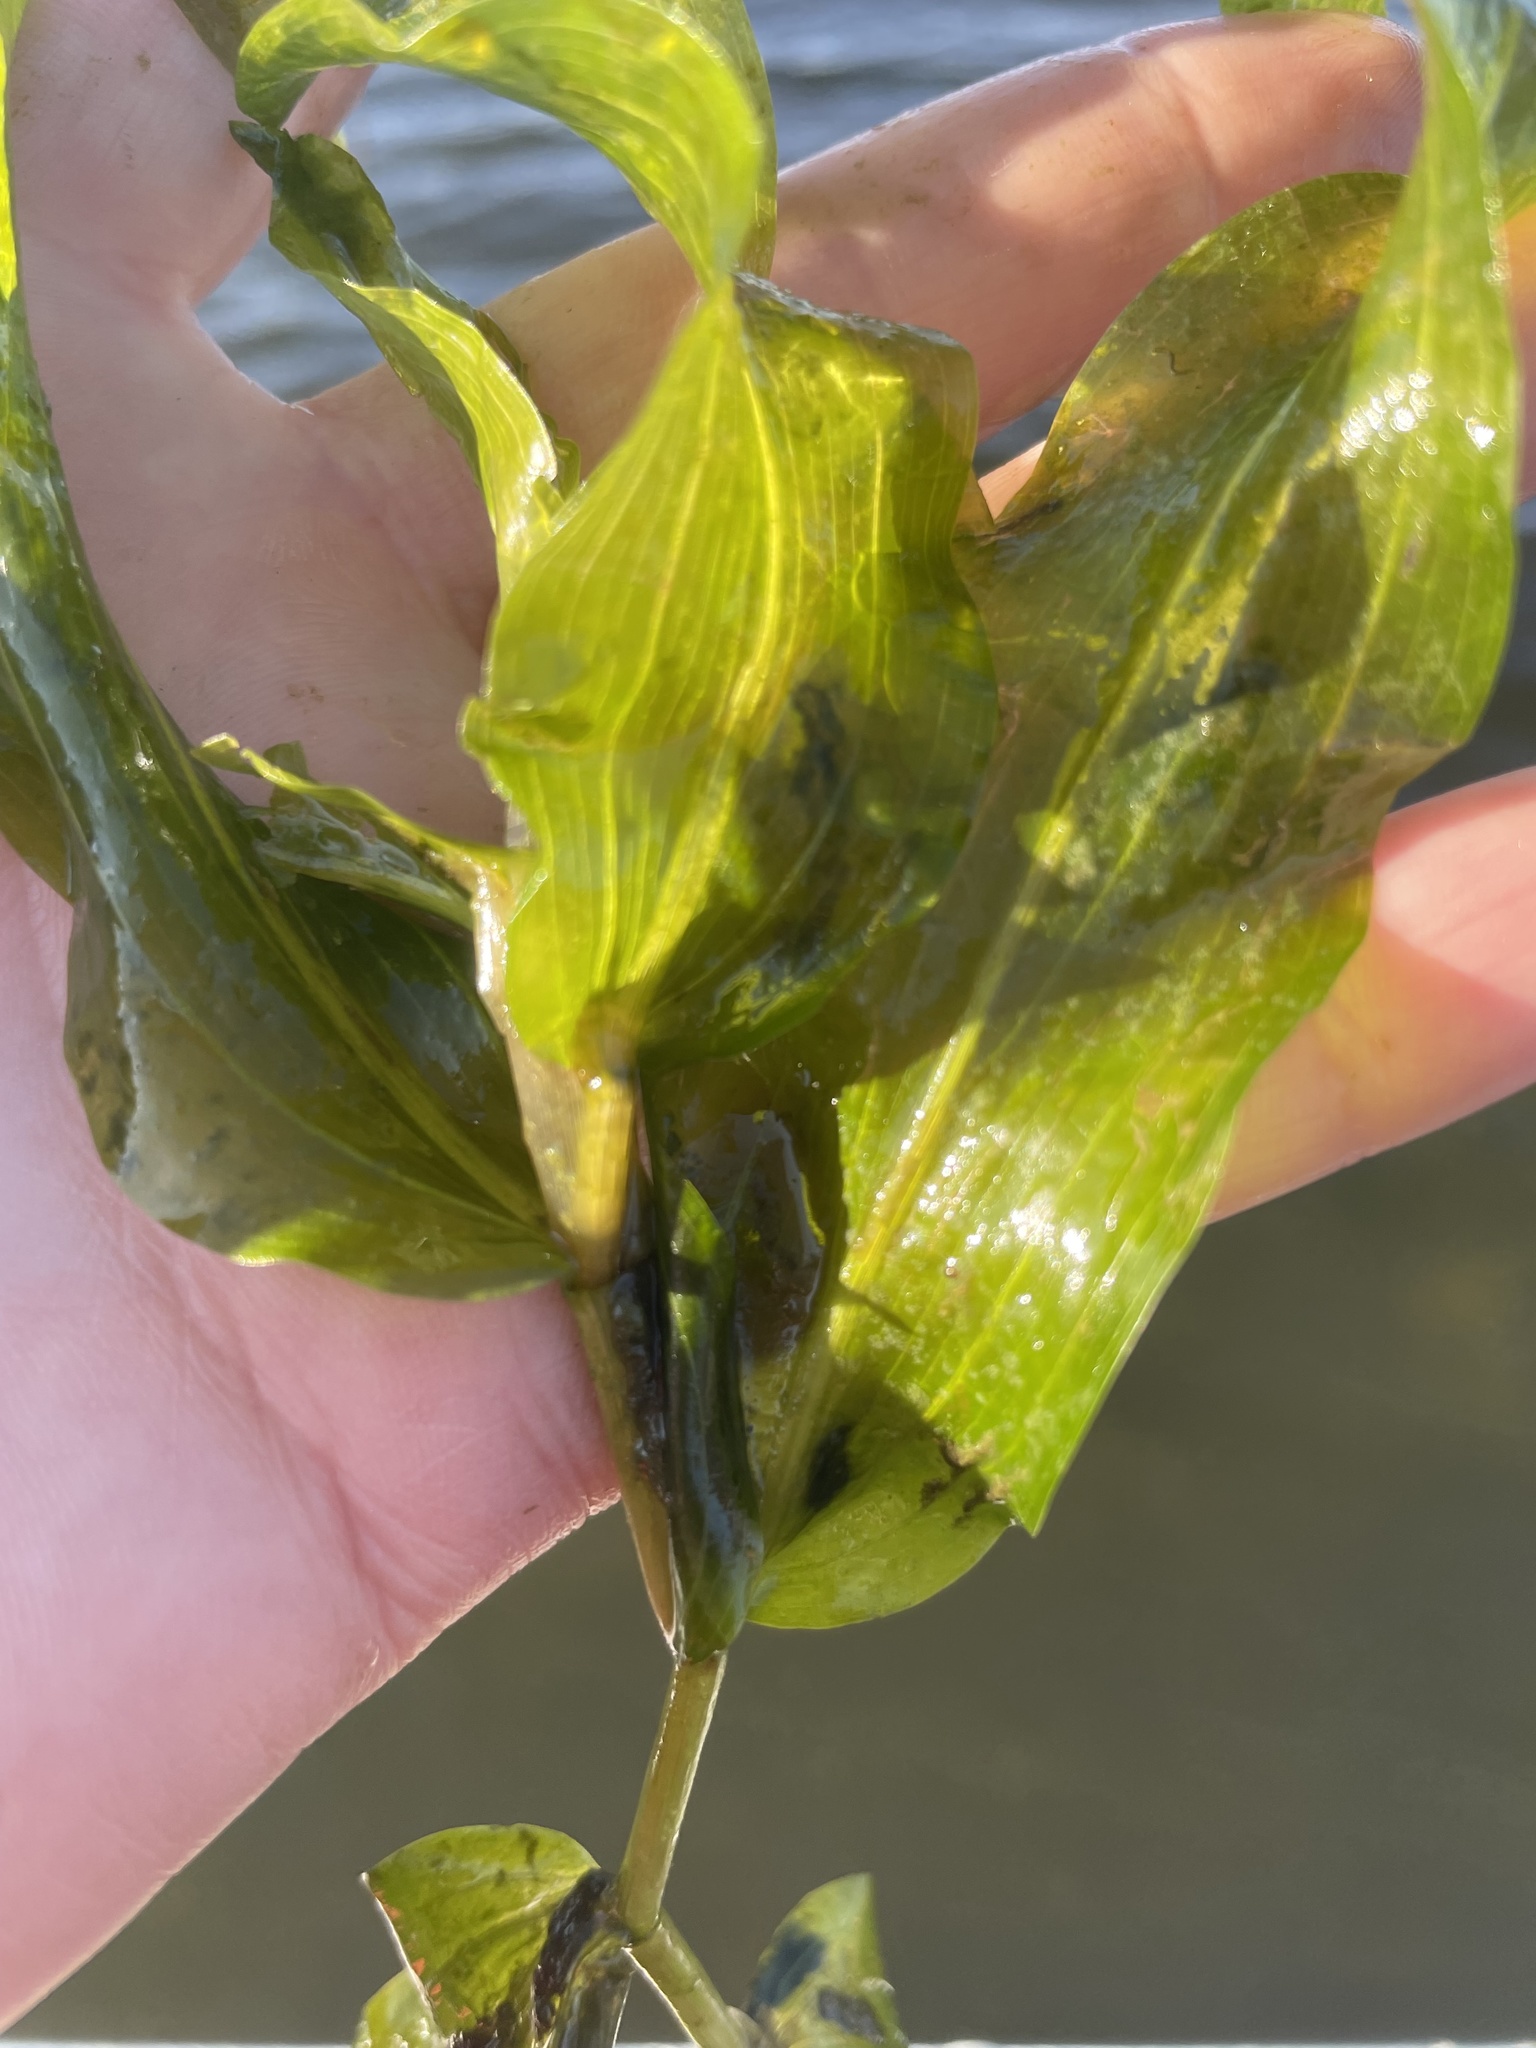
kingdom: Plantae
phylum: Tracheophyta
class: Liliopsida
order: Alismatales
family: Potamogetonaceae
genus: Potamogeton
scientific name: Potamogeton perfoliatus
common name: Perfoliate pondweed
